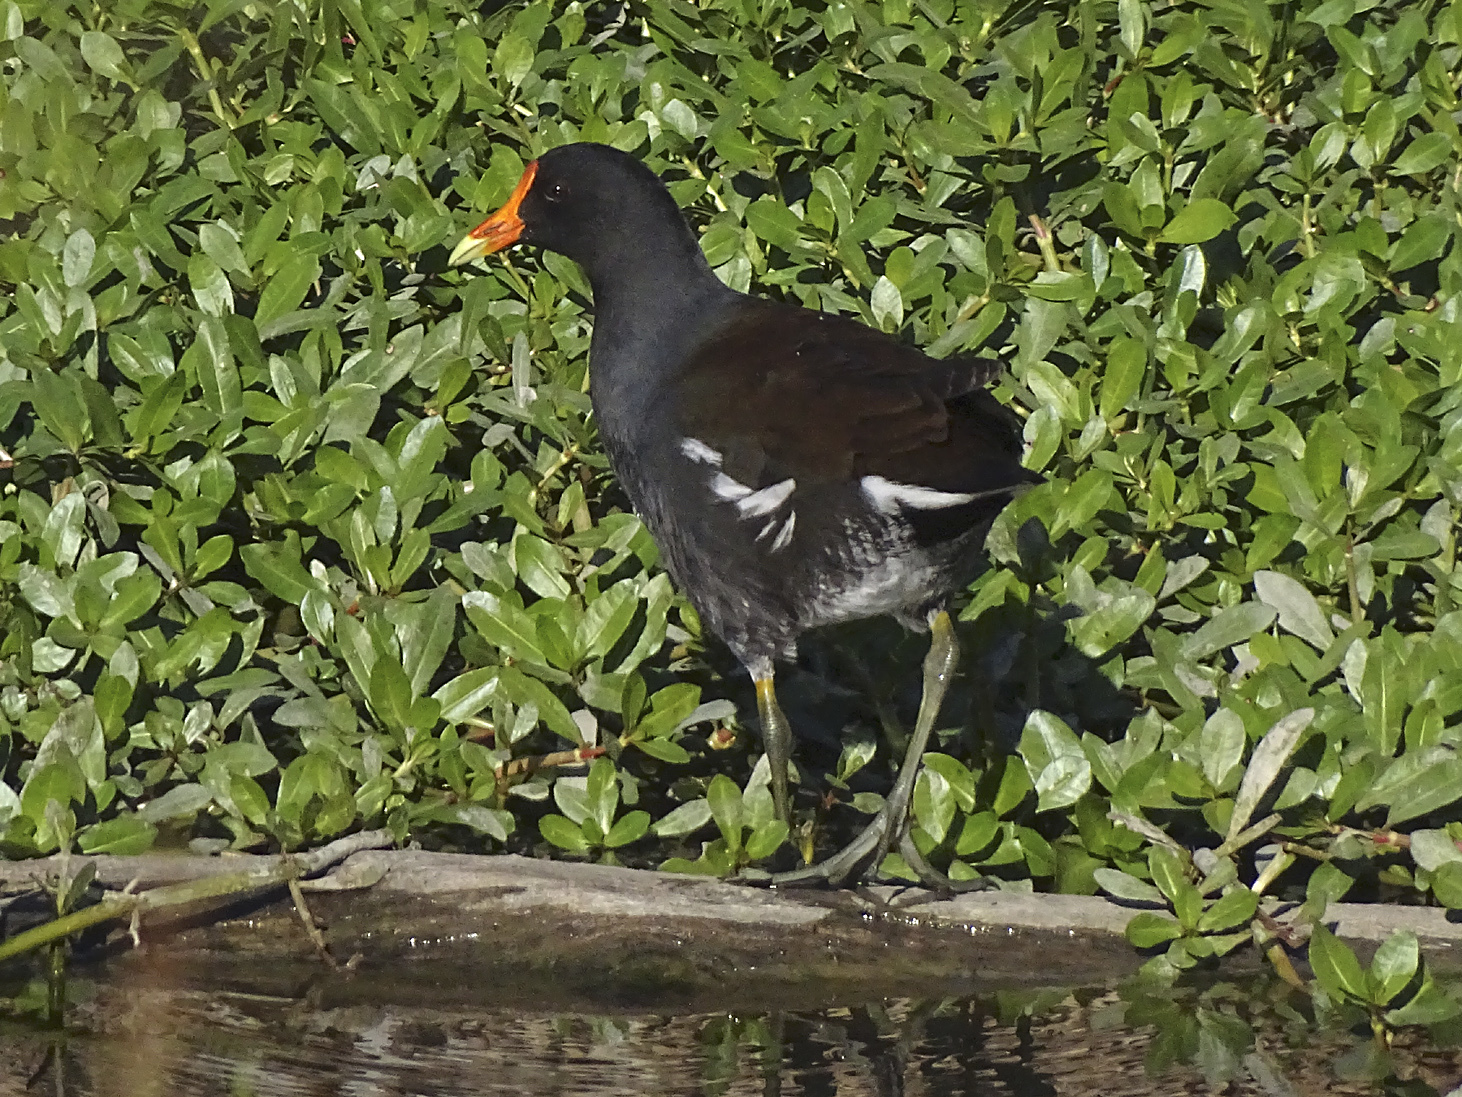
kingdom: Animalia
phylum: Chordata
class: Aves
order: Gruiformes
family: Rallidae
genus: Gallinula
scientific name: Gallinula chloropus
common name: Common moorhen
